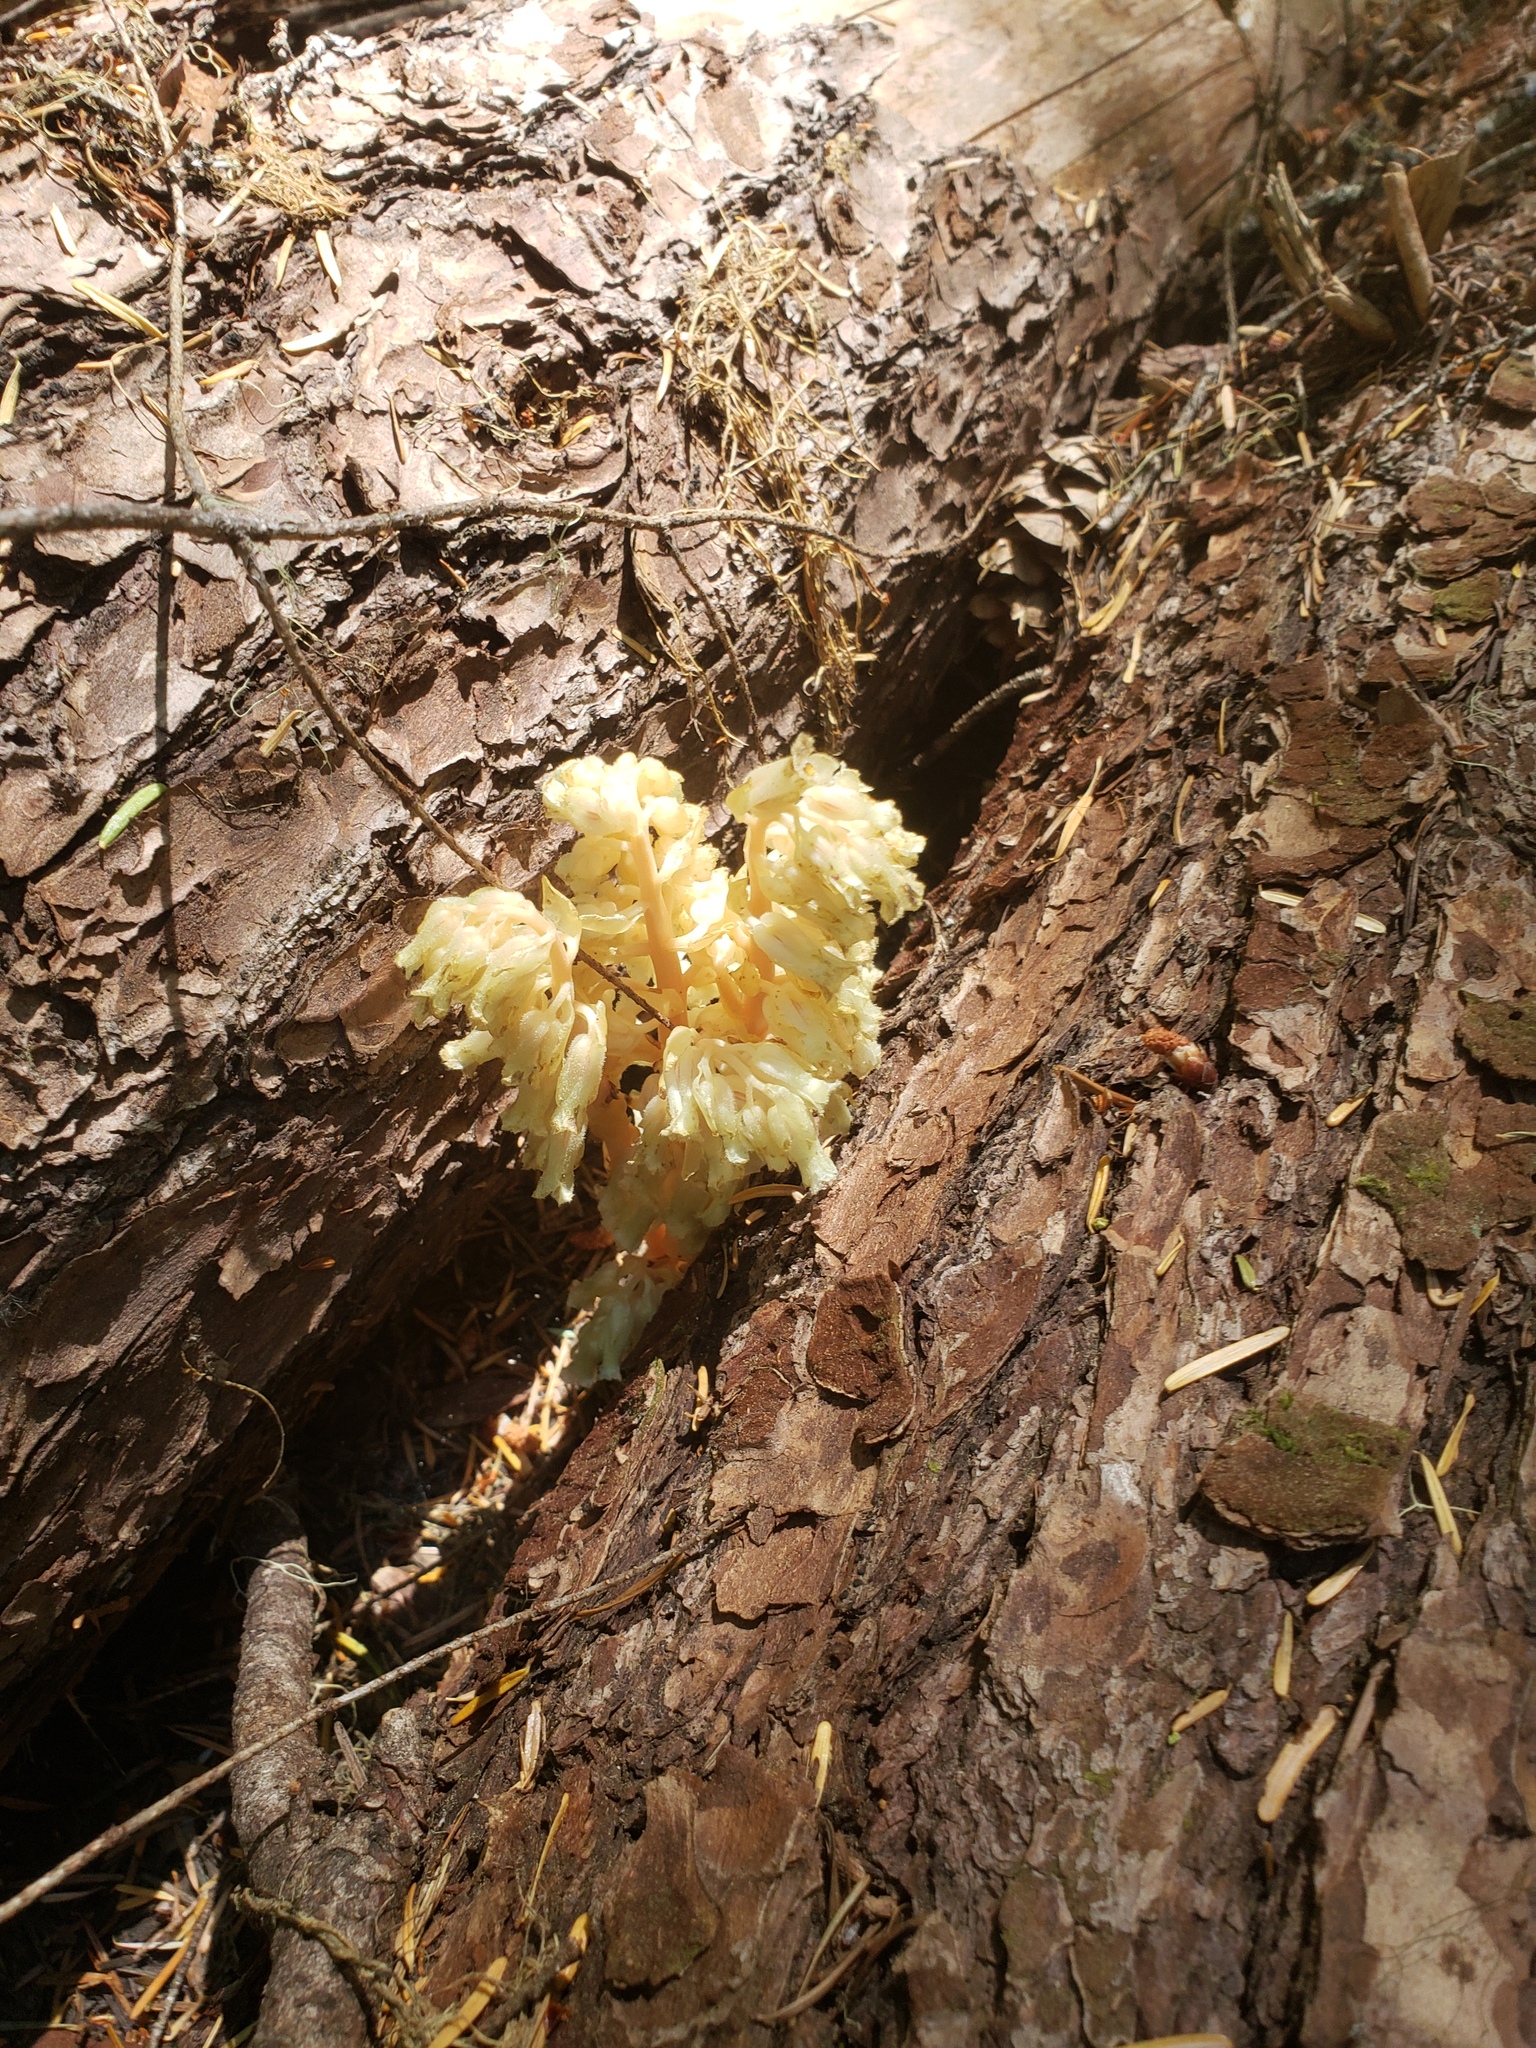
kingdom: Plantae
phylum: Tracheophyta
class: Magnoliopsida
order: Ericales
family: Ericaceae
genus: Hypopitys
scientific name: Hypopitys monotropa
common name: Yellow bird's-nest
